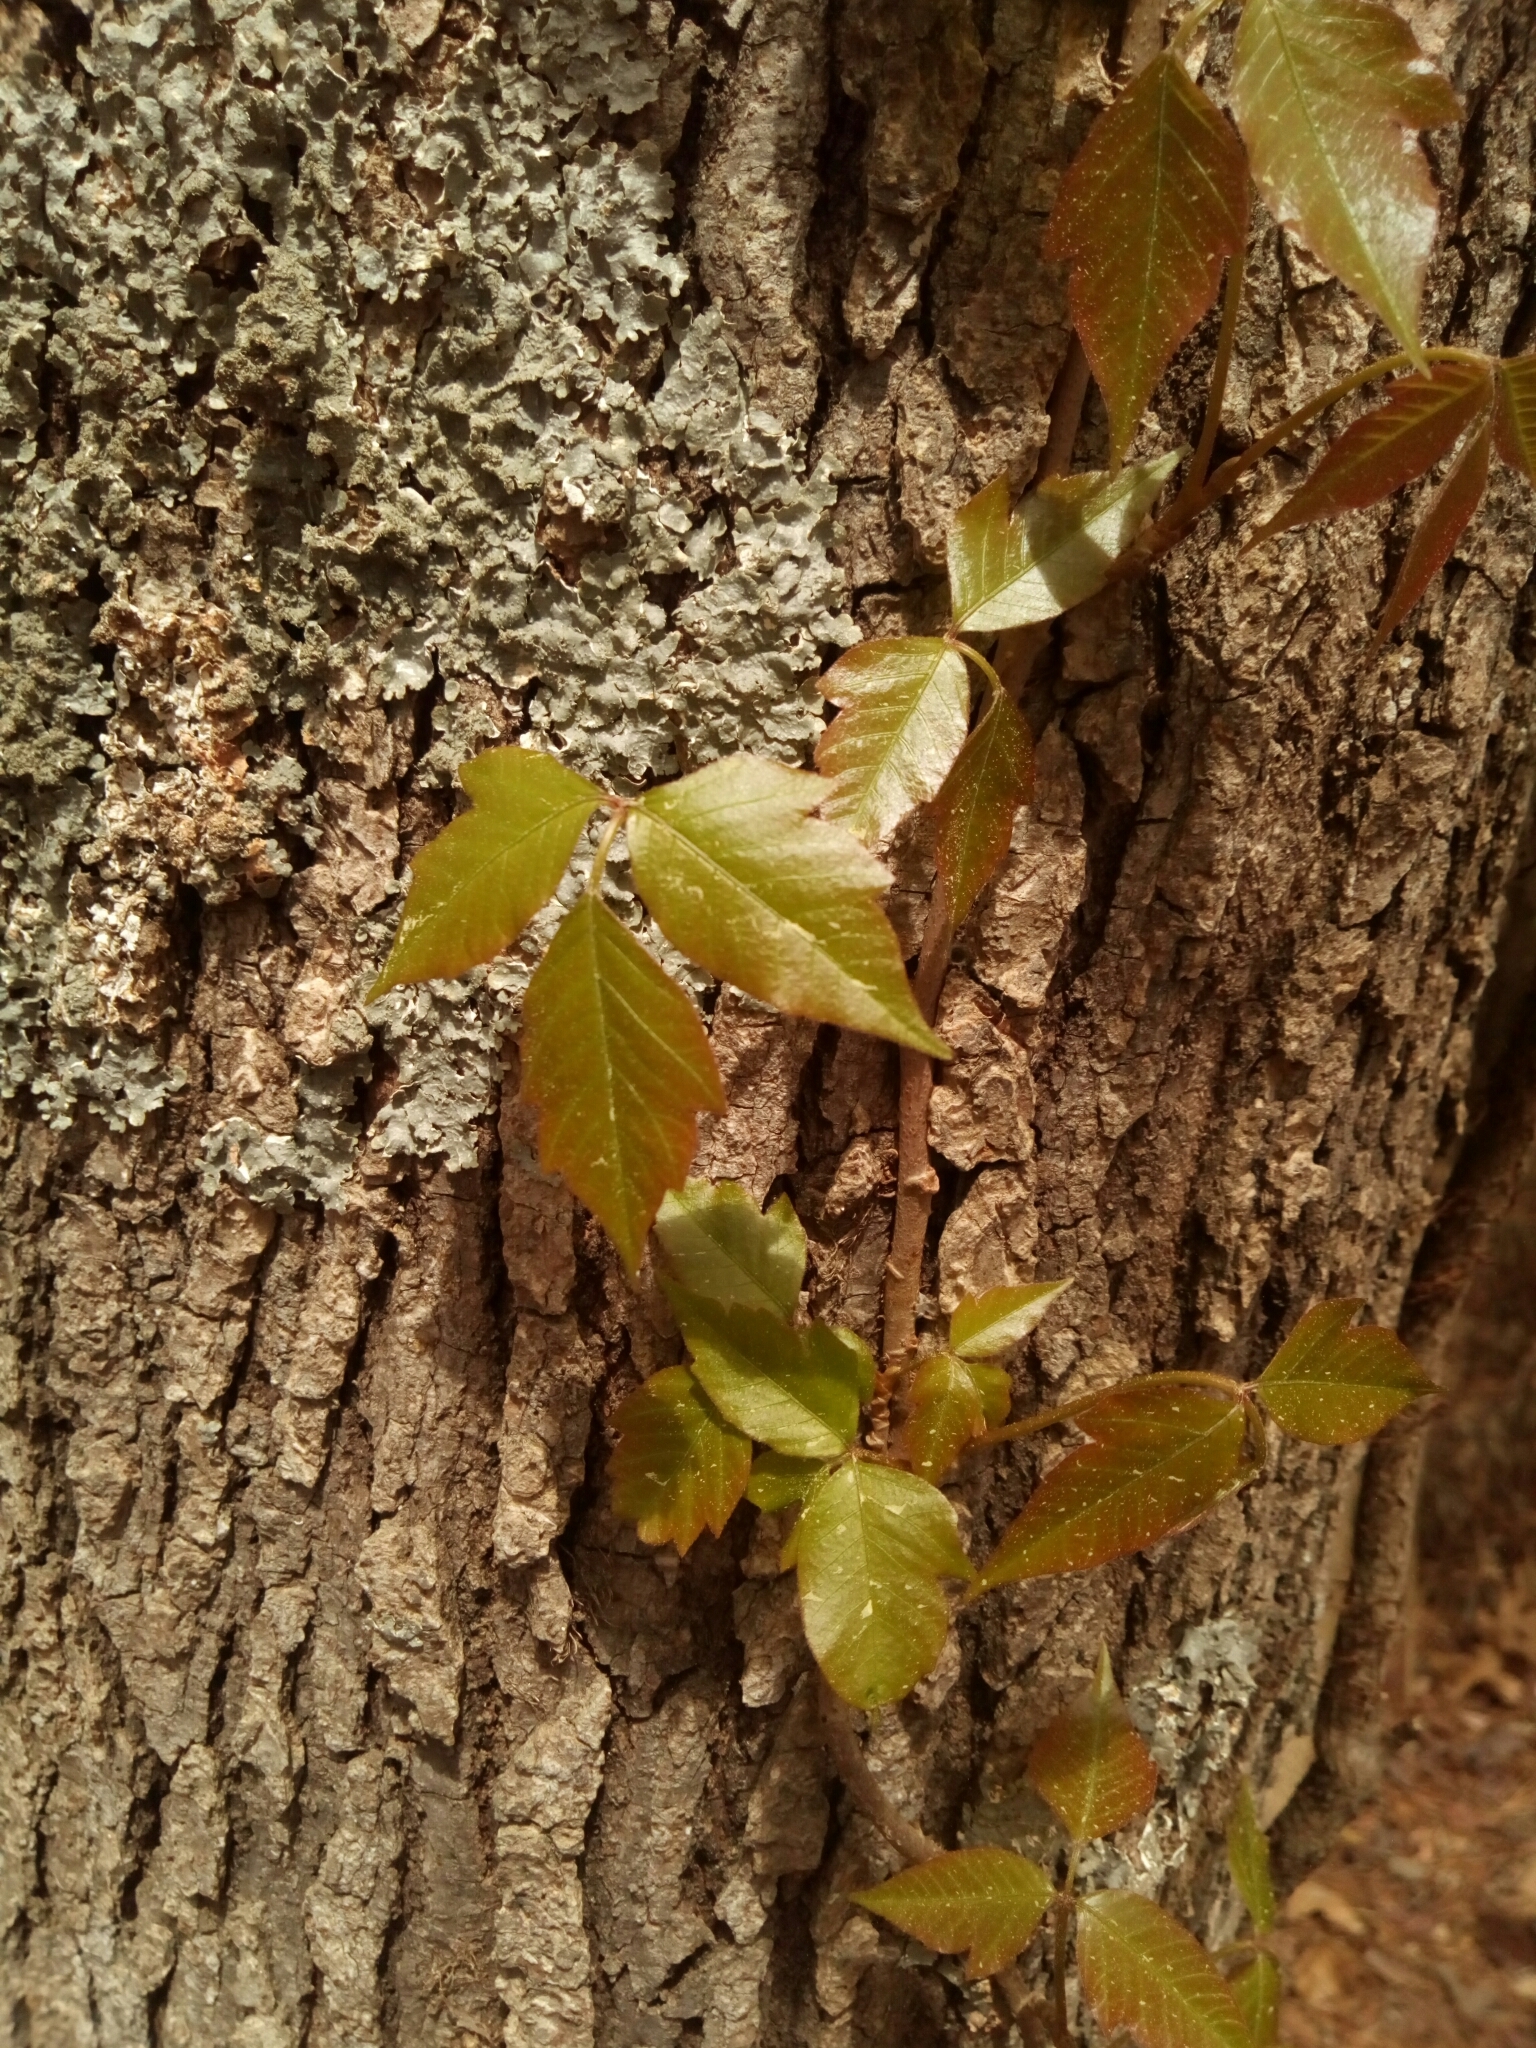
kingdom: Plantae
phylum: Tracheophyta
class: Magnoliopsida
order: Sapindales
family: Anacardiaceae
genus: Toxicodendron
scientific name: Toxicodendron radicans
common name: Poison ivy
